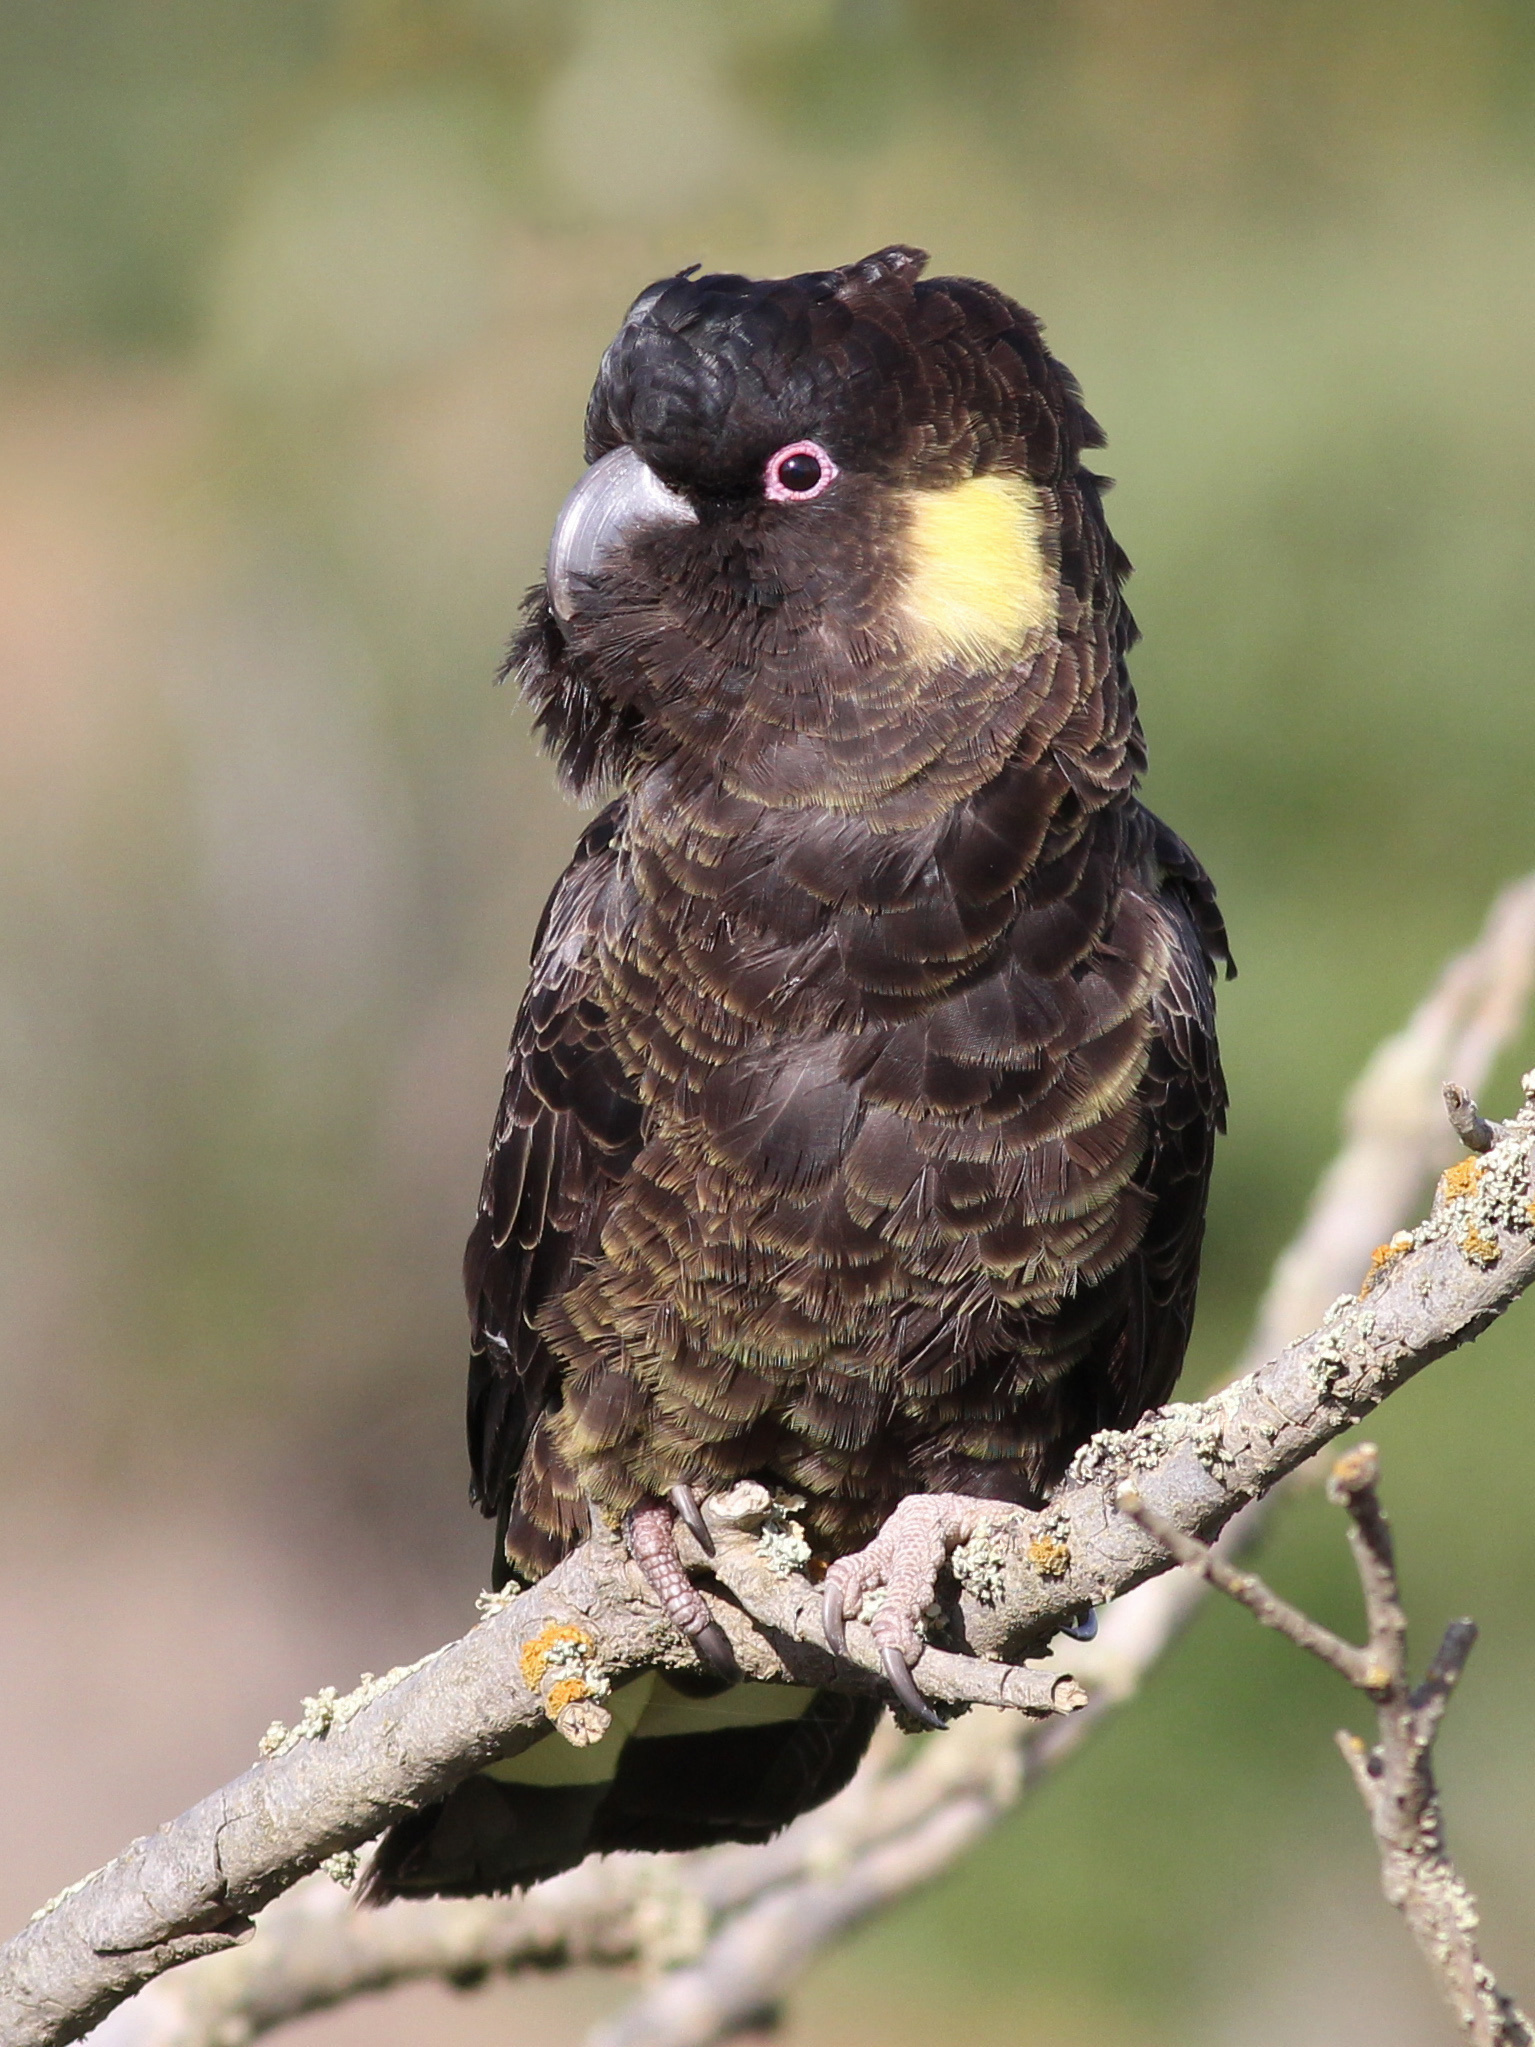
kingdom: Animalia
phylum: Chordata
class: Aves
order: Psittaciformes
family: Cacatuidae
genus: Zanda
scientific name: Zanda funerea
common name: Yellow-tailed black-cockatoo
